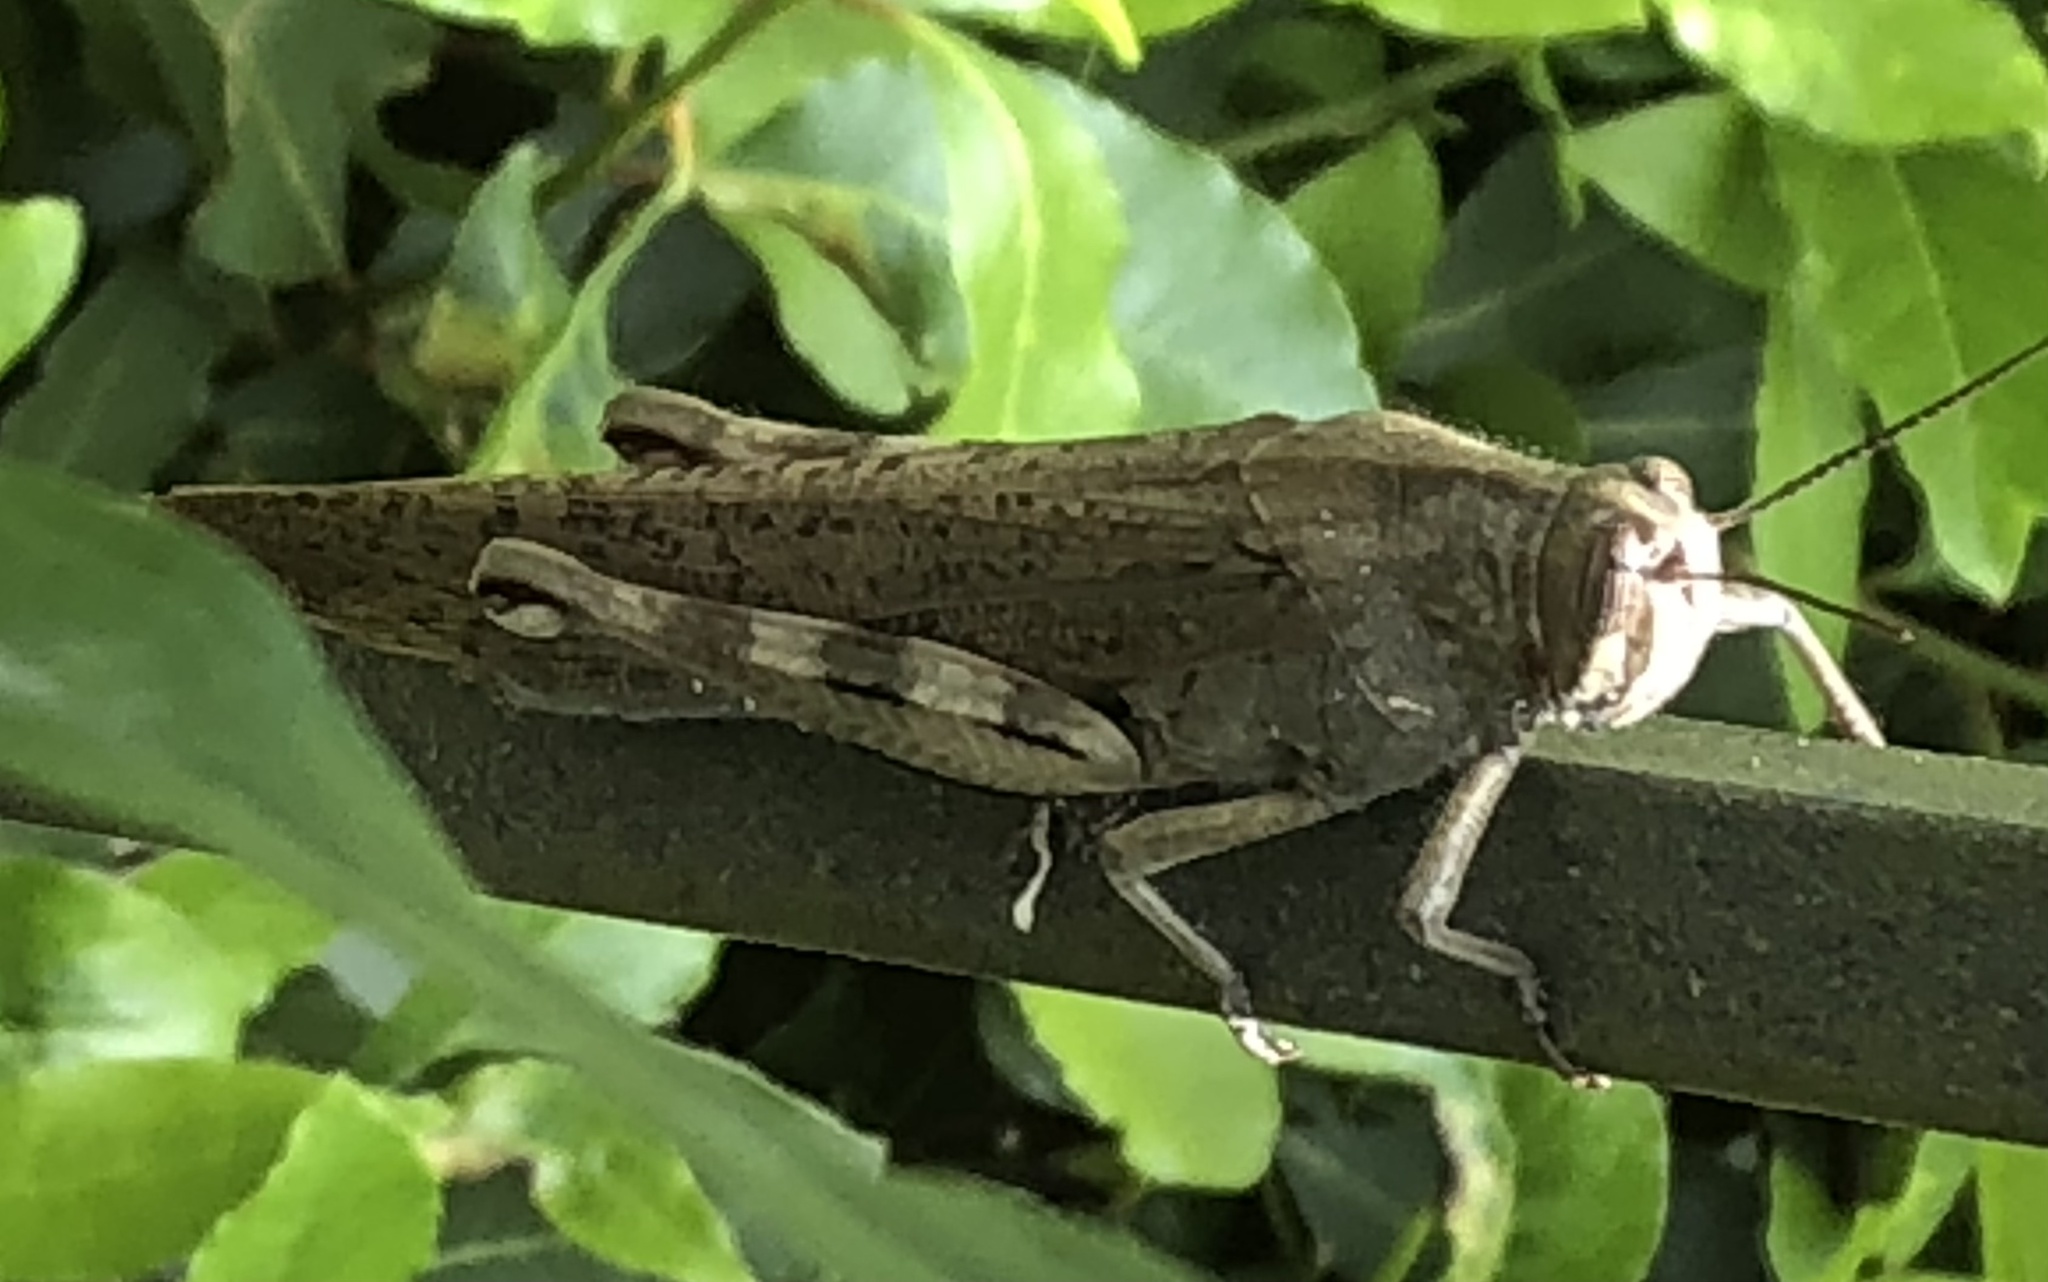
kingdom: Animalia
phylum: Arthropoda
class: Insecta
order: Orthoptera
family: Acrididae
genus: Anacridium
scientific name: Anacridium aegyptium
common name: Egyptian grasshopper
